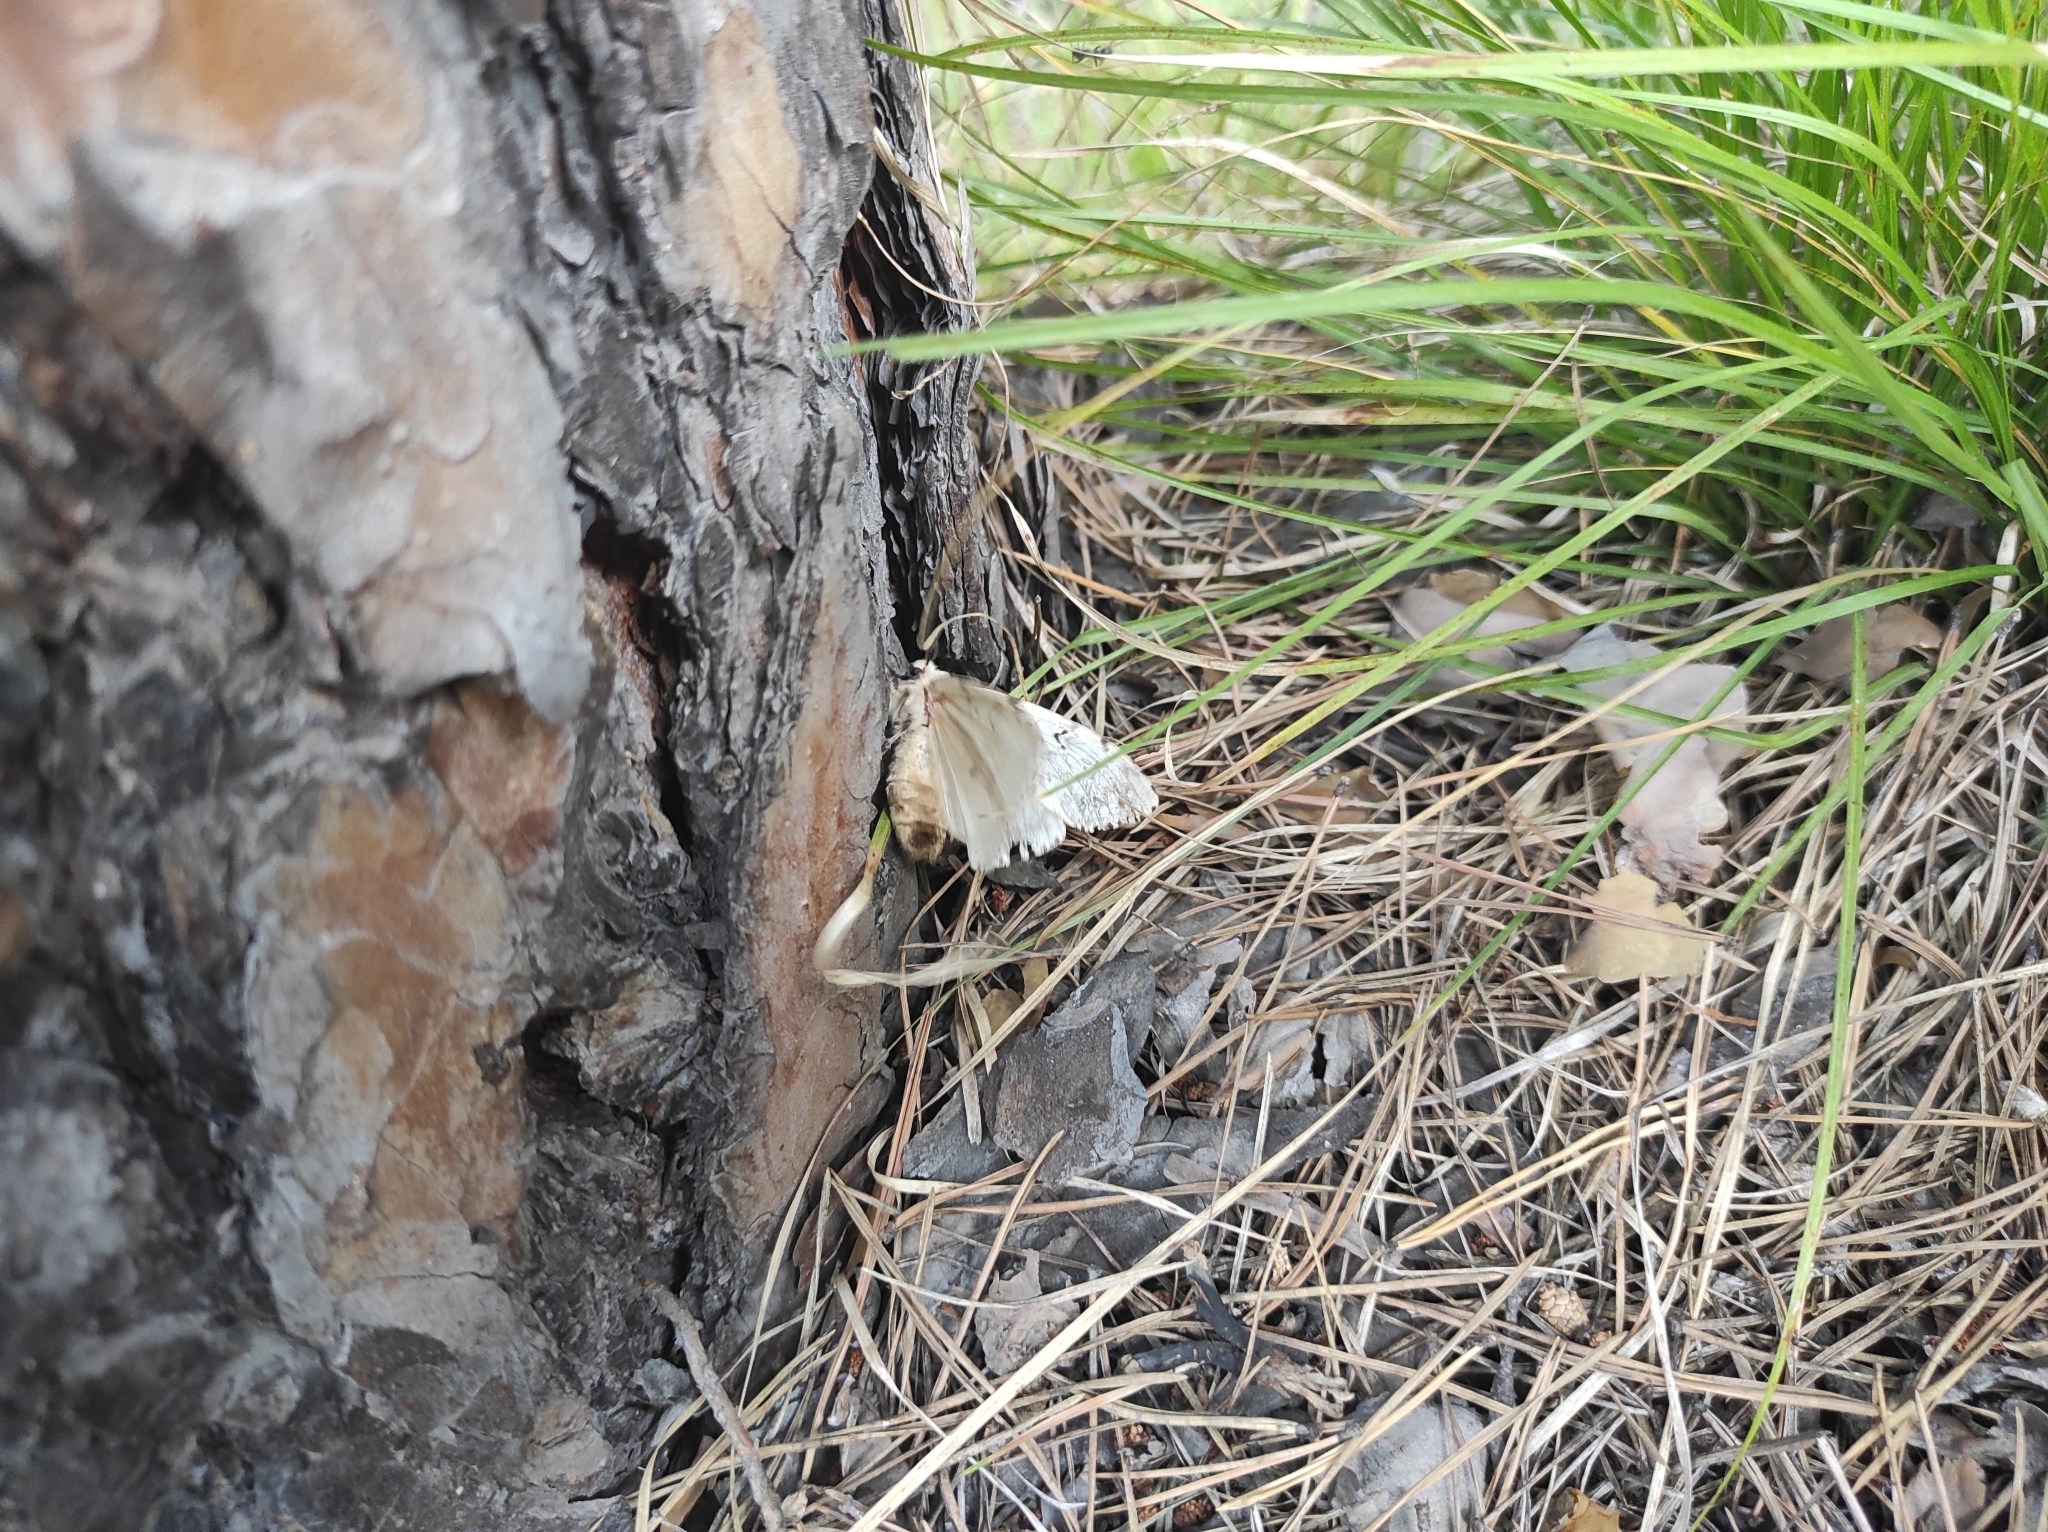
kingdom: Plantae
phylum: Tracheophyta
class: Pinopsida
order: Pinales
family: Pinaceae
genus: Pinus
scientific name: Pinus sylvestris
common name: Scots pine
